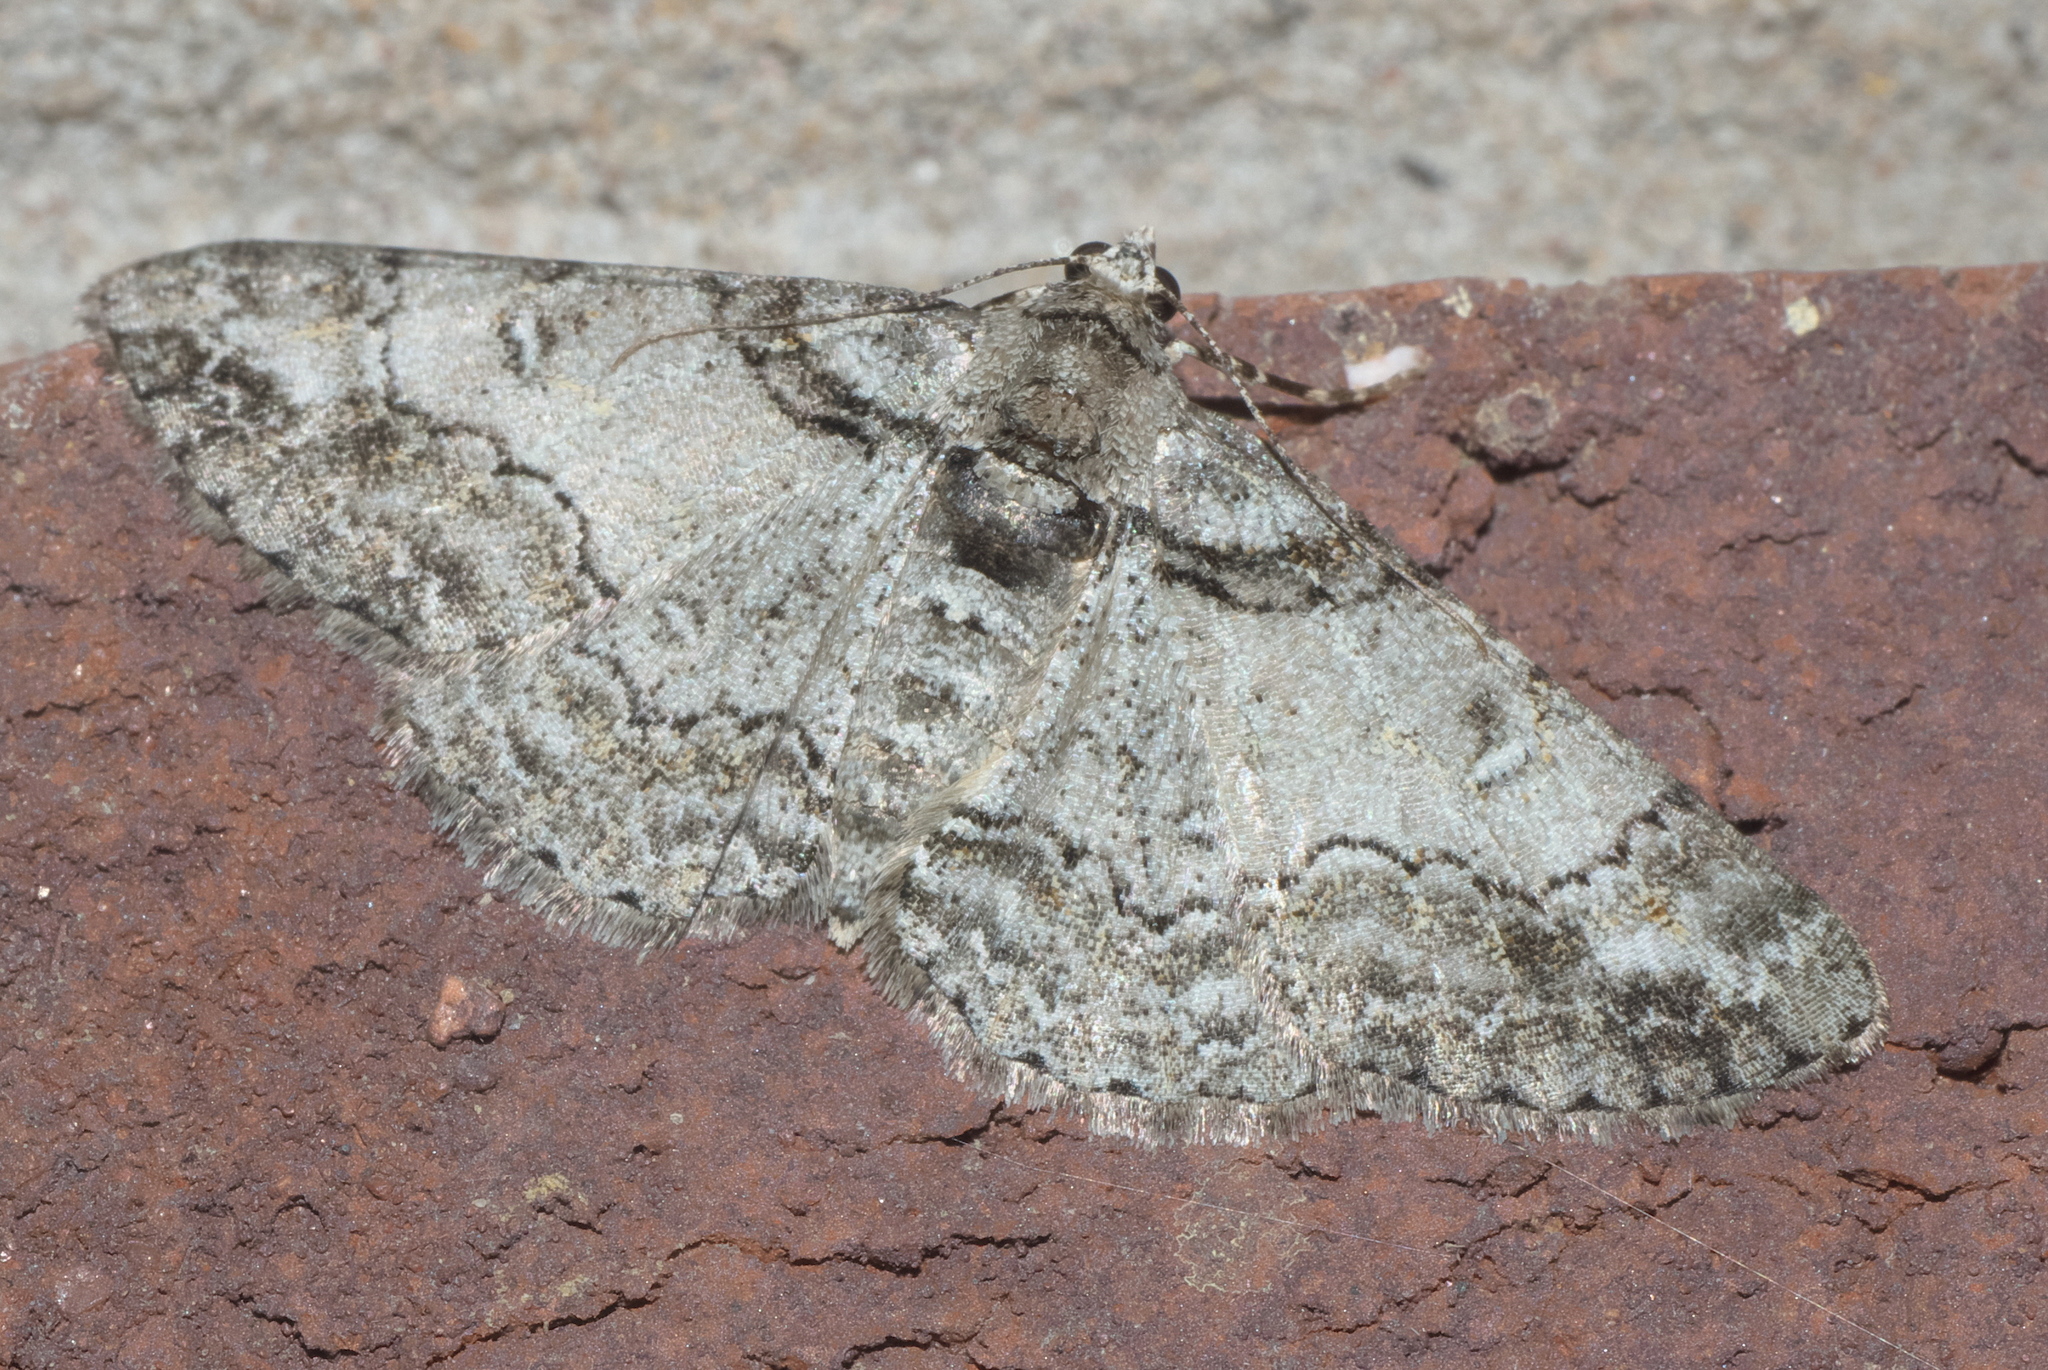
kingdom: Animalia
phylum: Arthropoda
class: Insecta
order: Lepidoptera
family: Geometridae
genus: Cleora
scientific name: Cleora sublunaria
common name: Double-lined gray
